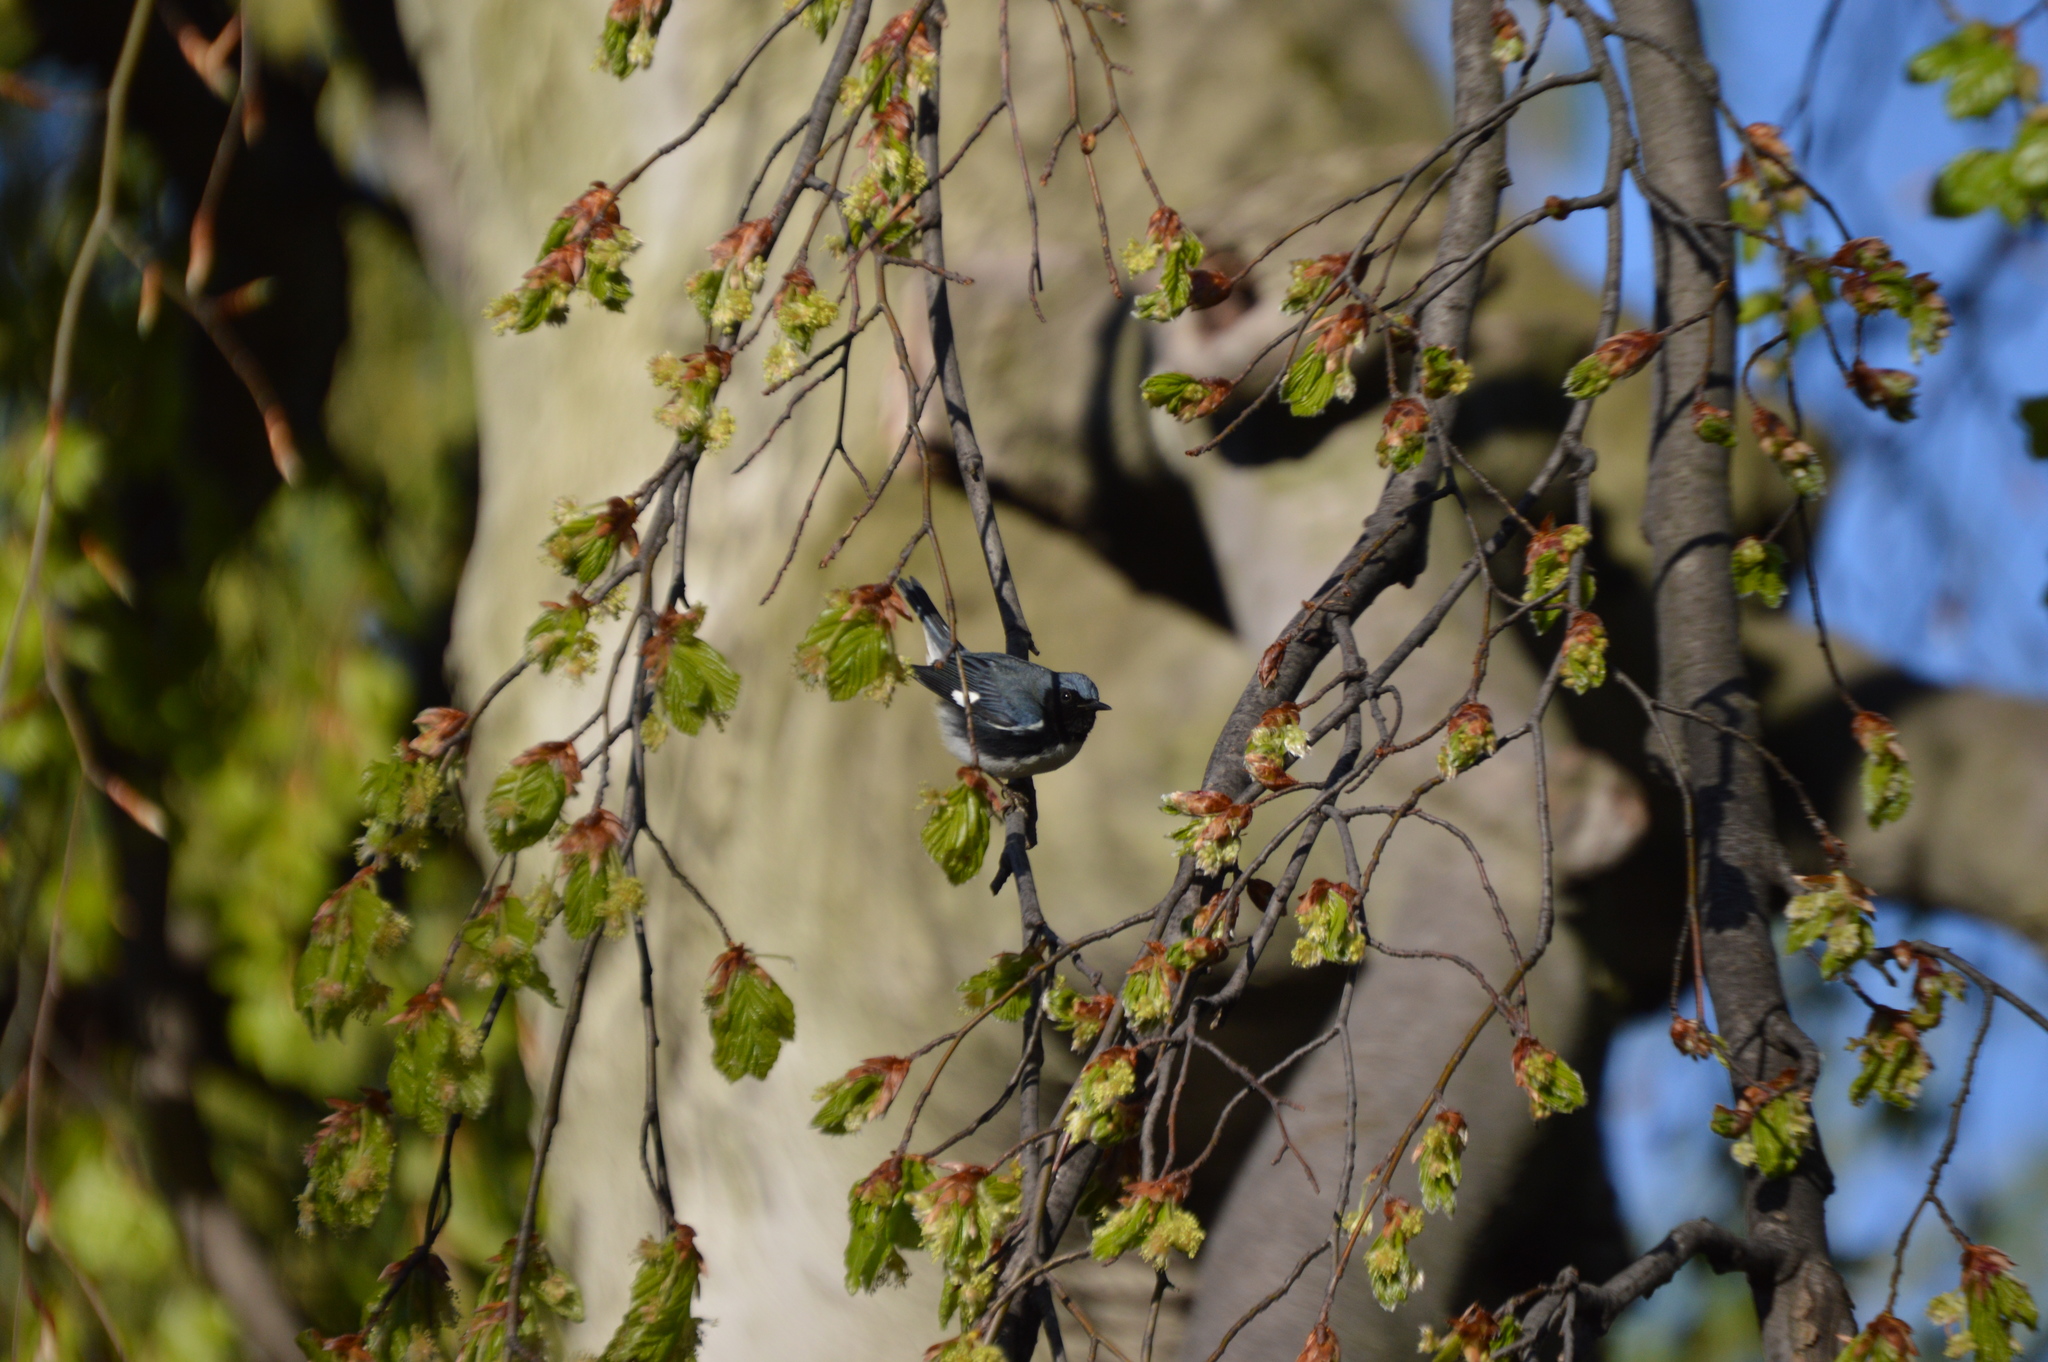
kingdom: Animalia
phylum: Chordata
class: Aves
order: Passeriformes
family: Parulidae
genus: Setophaga
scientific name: Setophaga caerulescens
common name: Black-throated blue warbler
